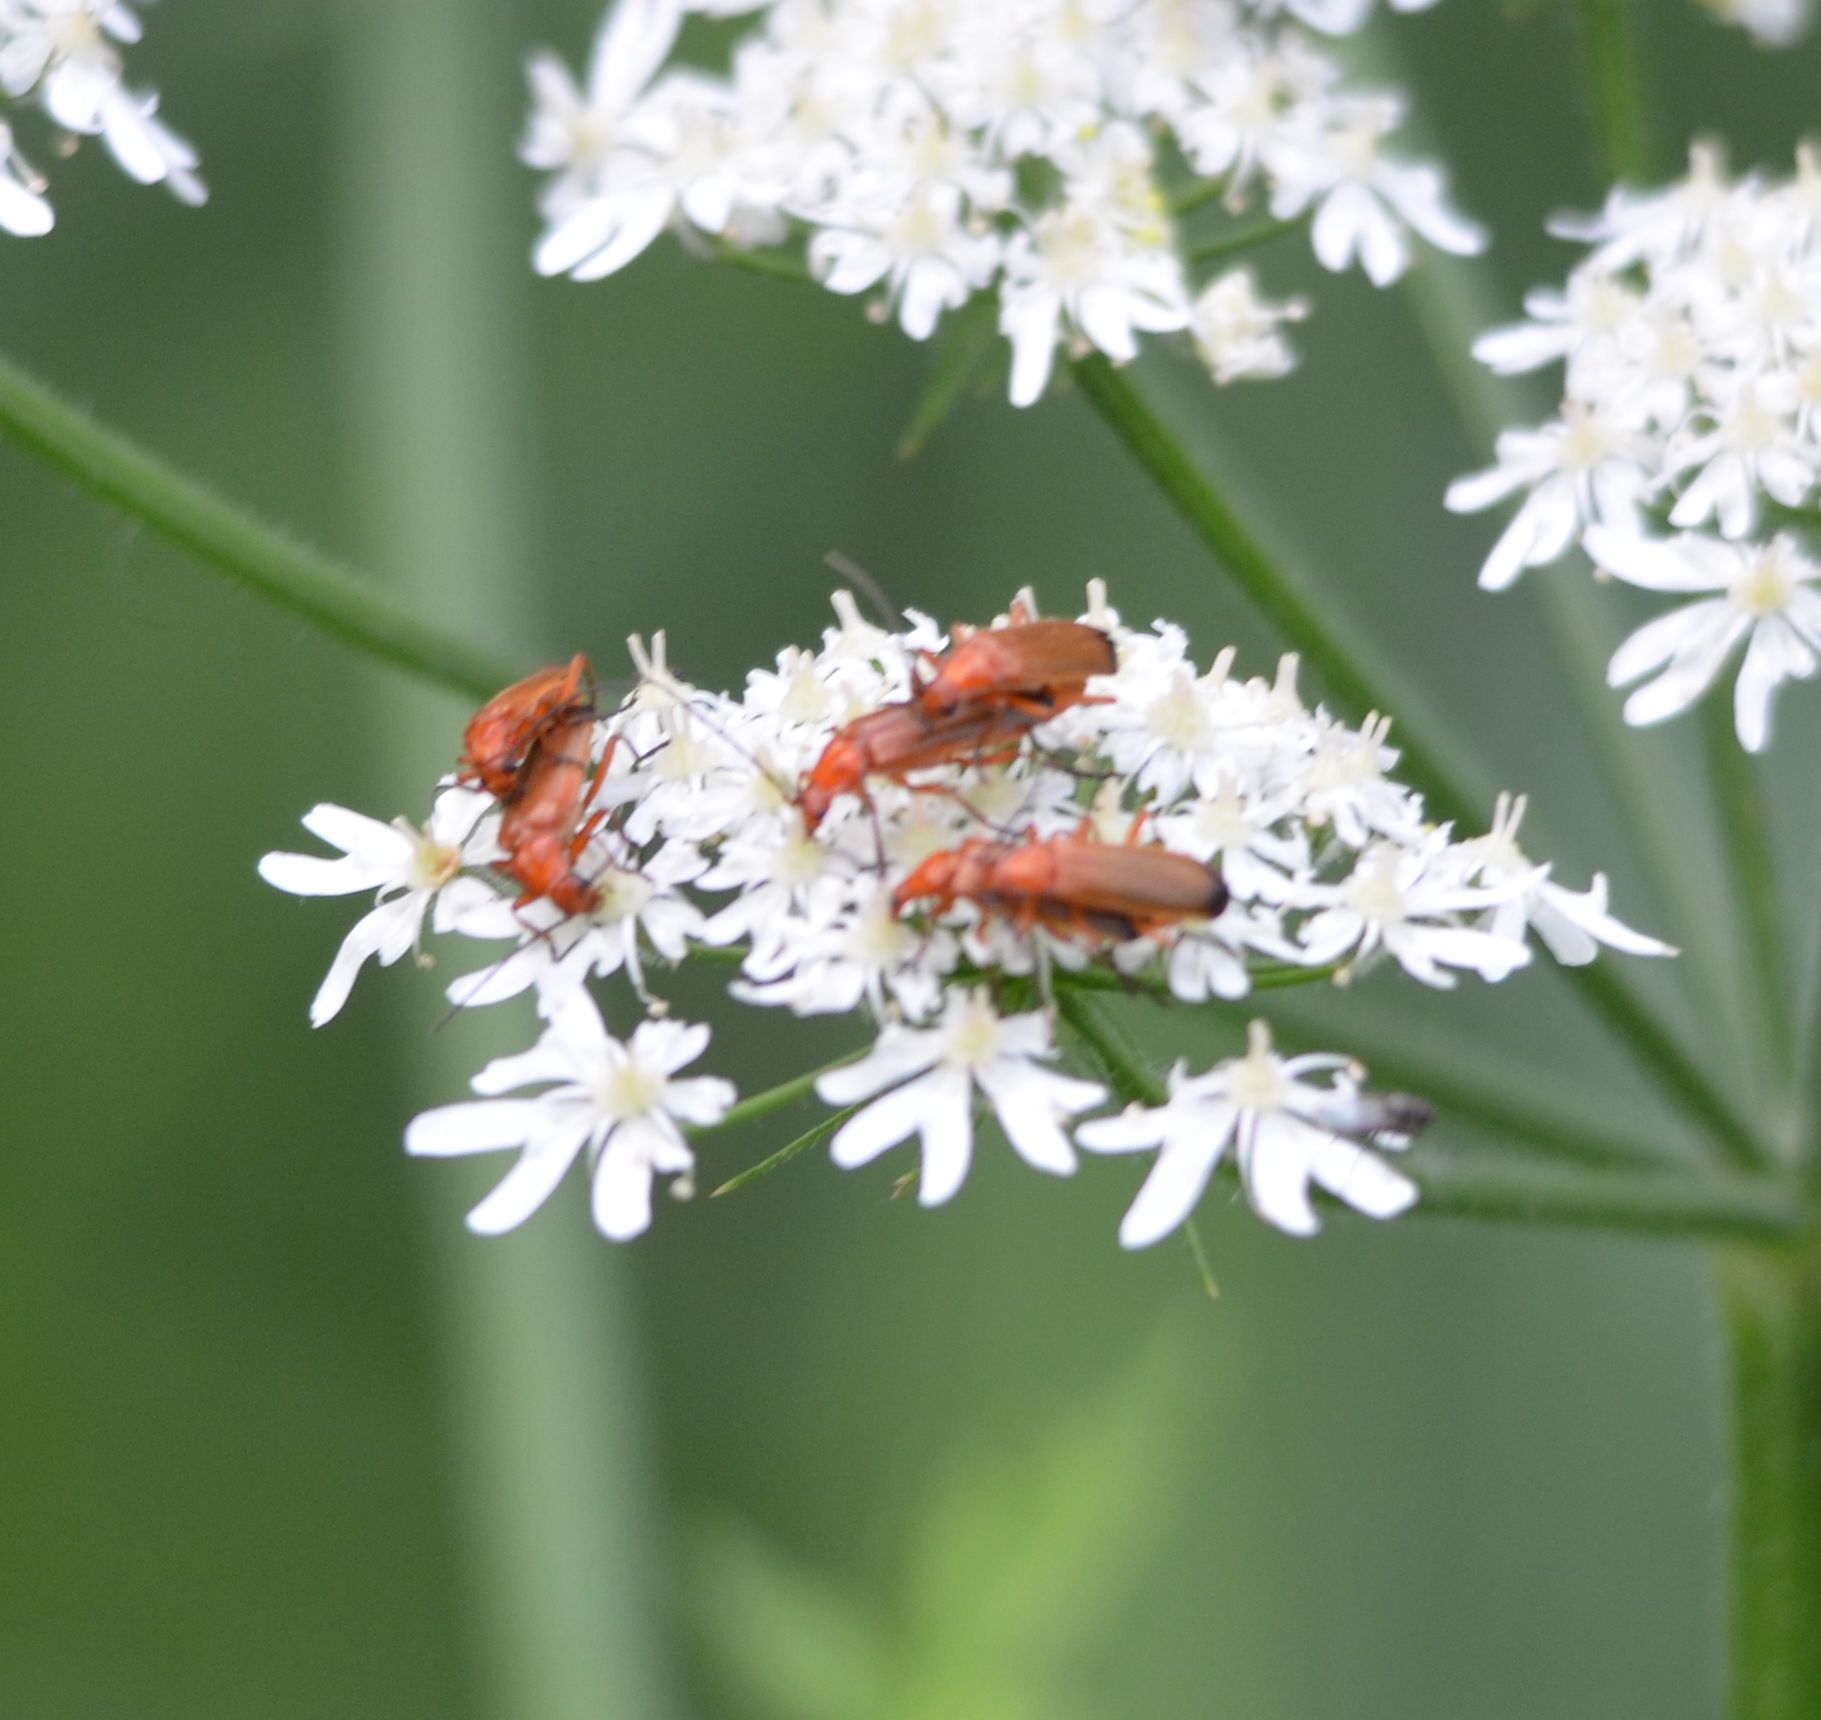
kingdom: Animalia
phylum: Arthropoda
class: Insecta
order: Coleoptera
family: Cantharidae
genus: Rhagonycha
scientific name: Rhagonycha fulva
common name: Common red soldier beetle
